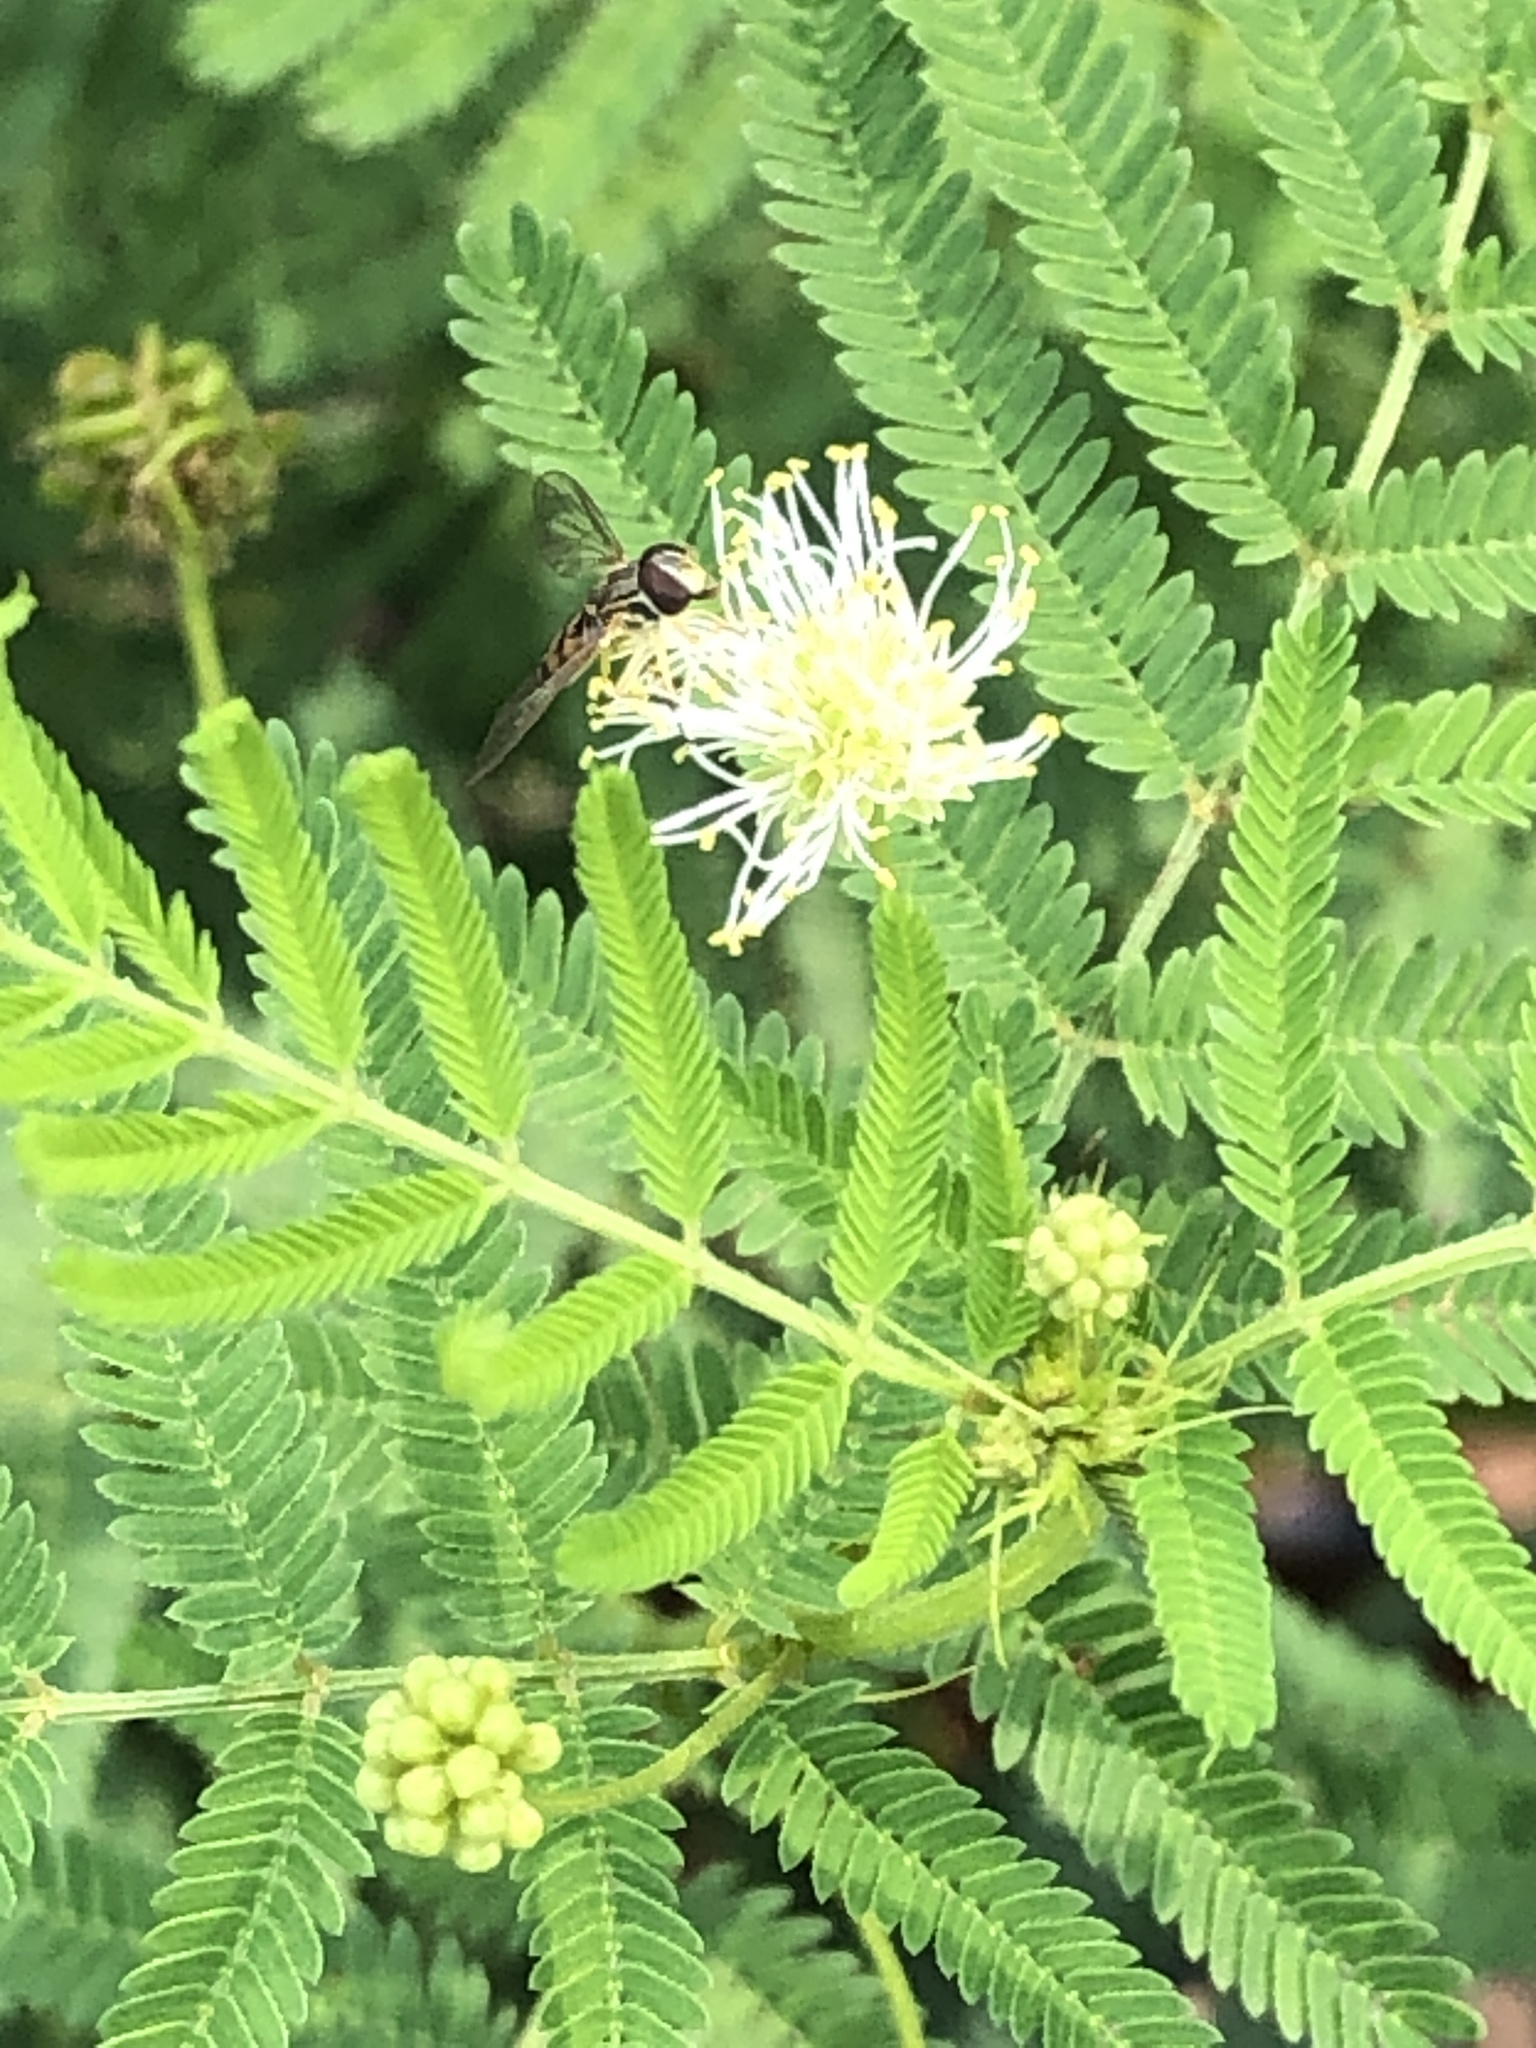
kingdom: Plantae
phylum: Tracheophyta
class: Magnoliopsida
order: Fabales
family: Fabaceae
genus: Desmanthus
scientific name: Desmanthus illinoensis
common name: Illinois bundle-flower
